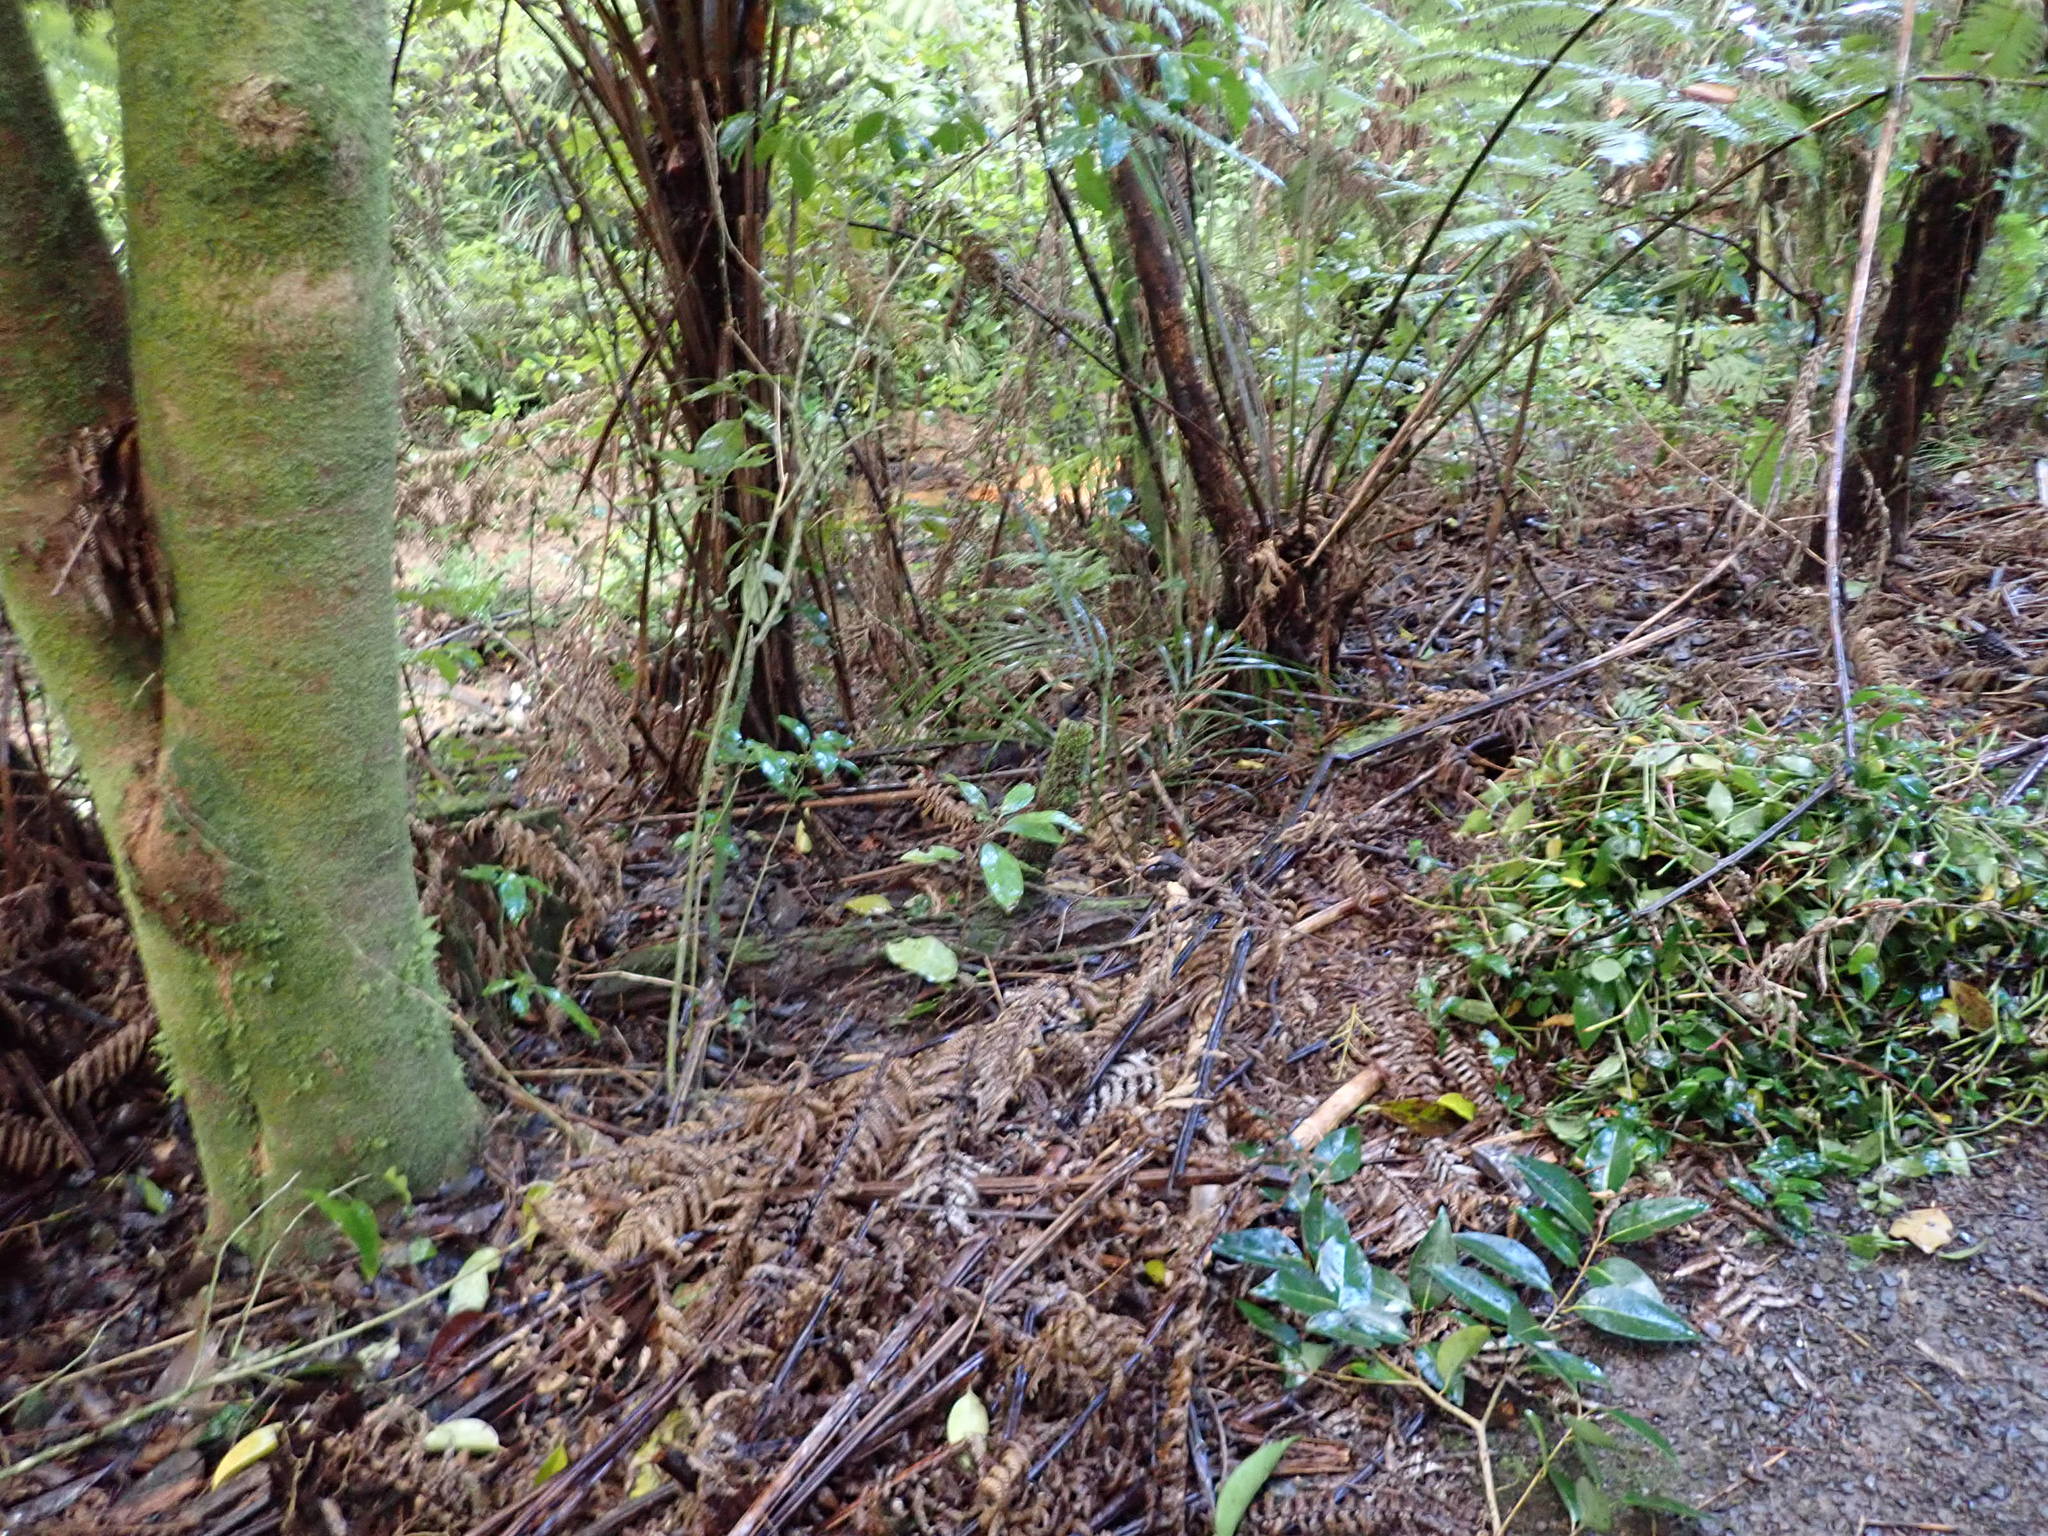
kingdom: Plantae
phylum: Tracheophyta
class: Magnoliopsida
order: Malpighiales
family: Violaceae
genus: Melicytus
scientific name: Melicytus ramiflorus
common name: Mahoe
